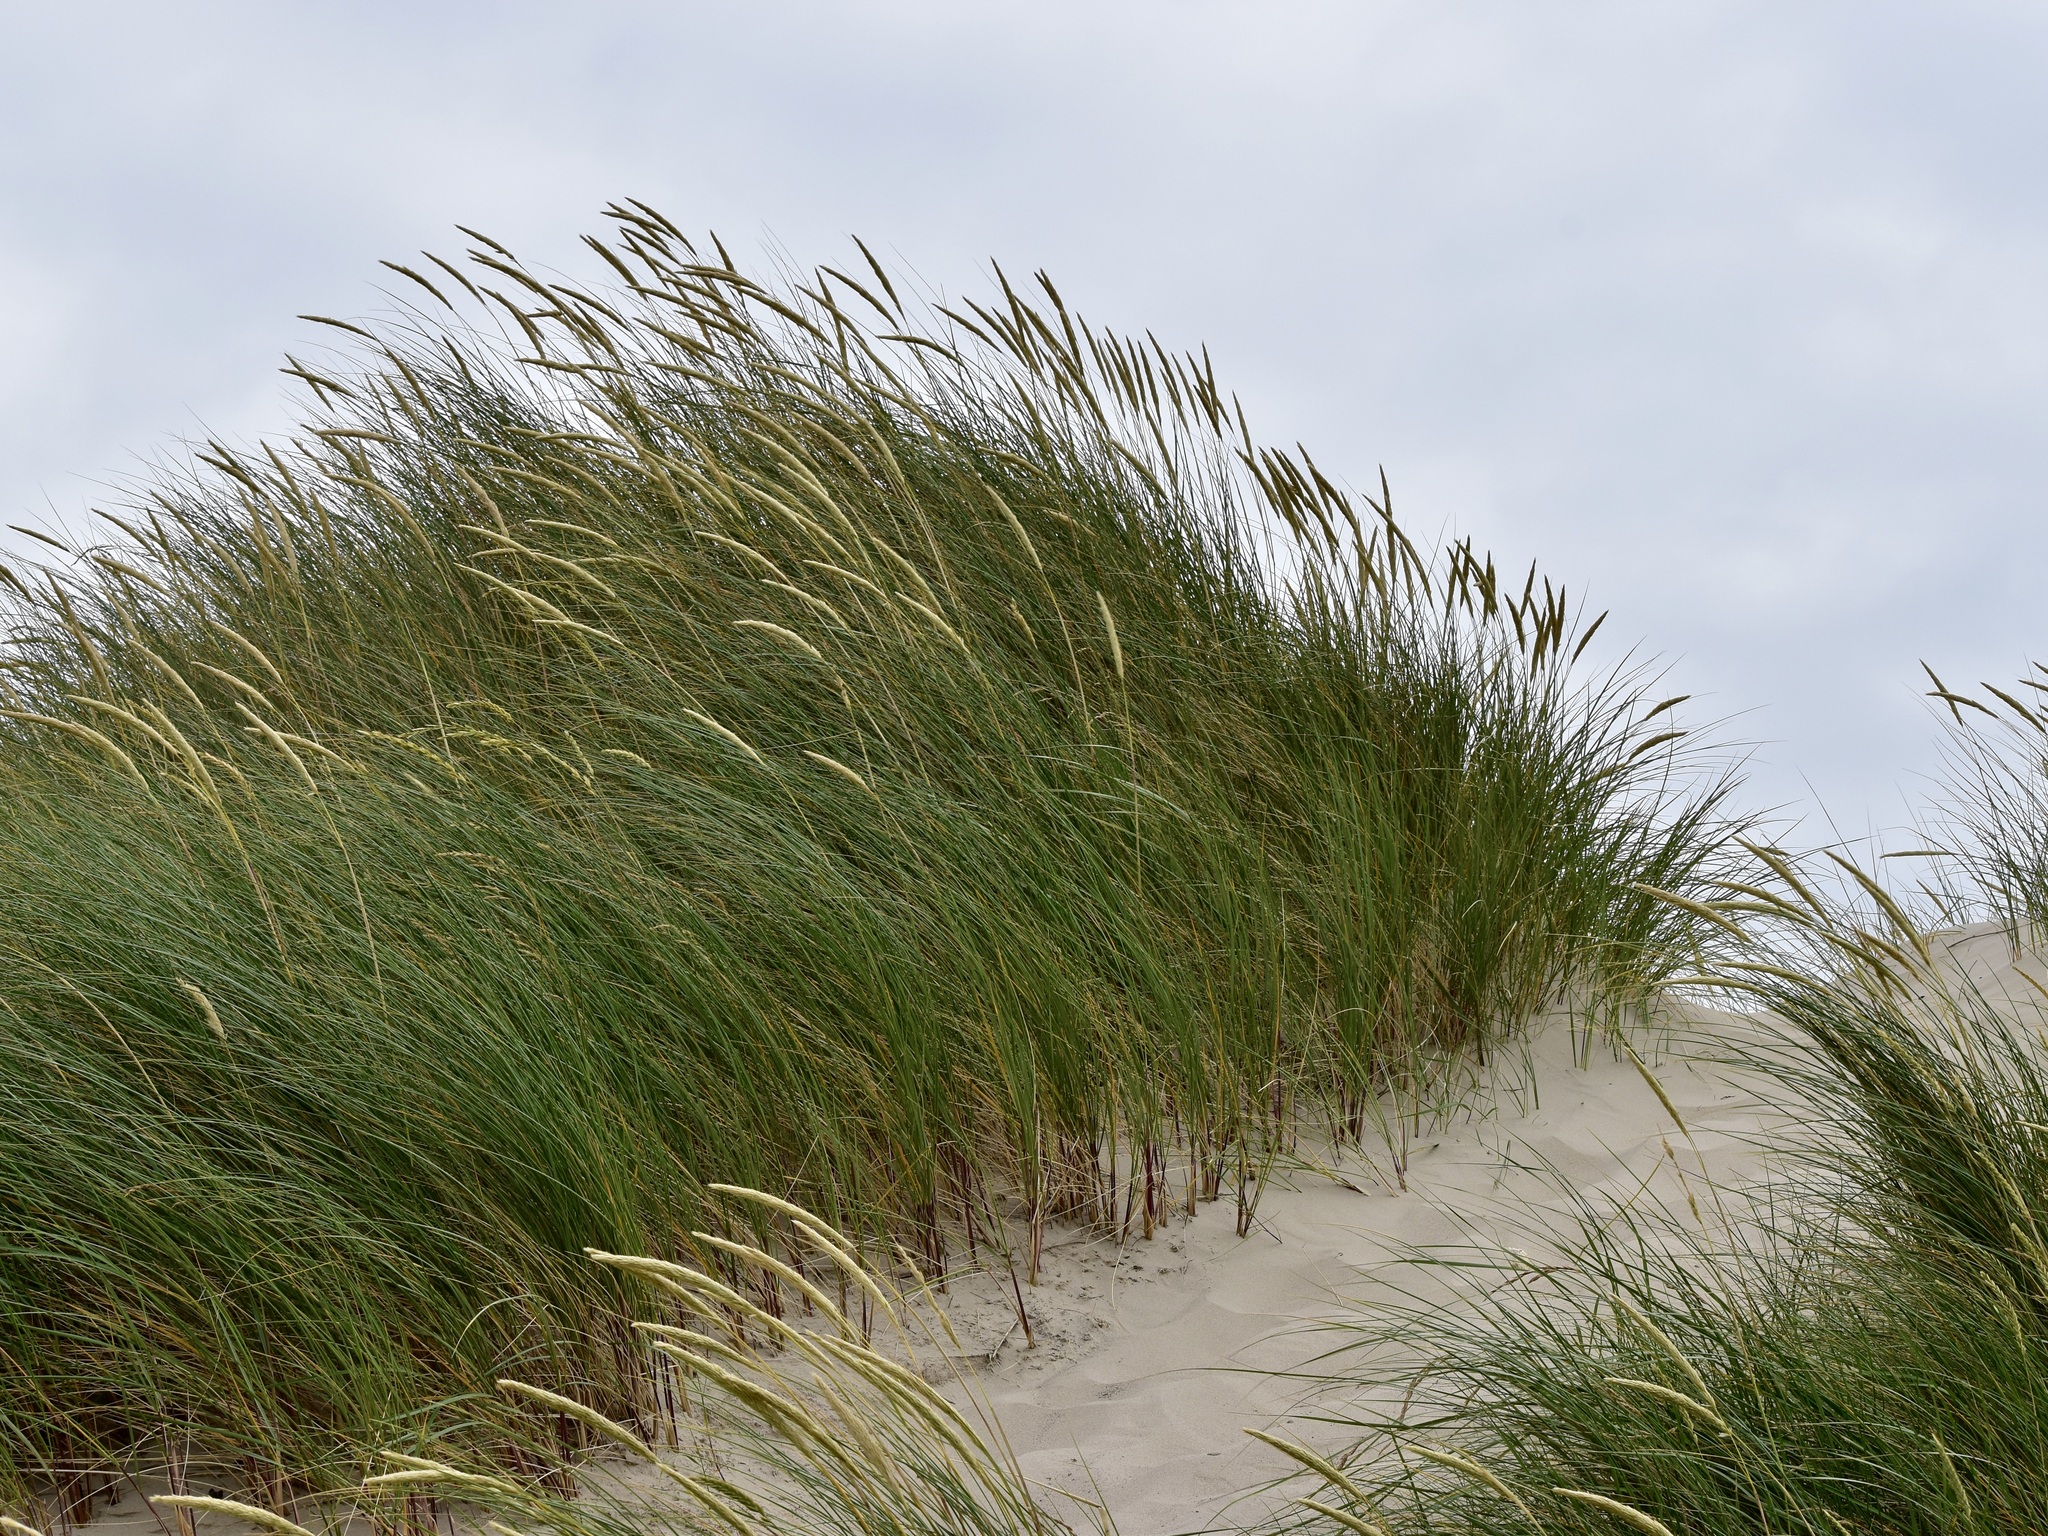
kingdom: Plantae
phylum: Tracheophyta
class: Liliopsida
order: Poales
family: Poaceae
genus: Calamagrostis
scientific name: Calamagrostis arenaria
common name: European beachgrass
